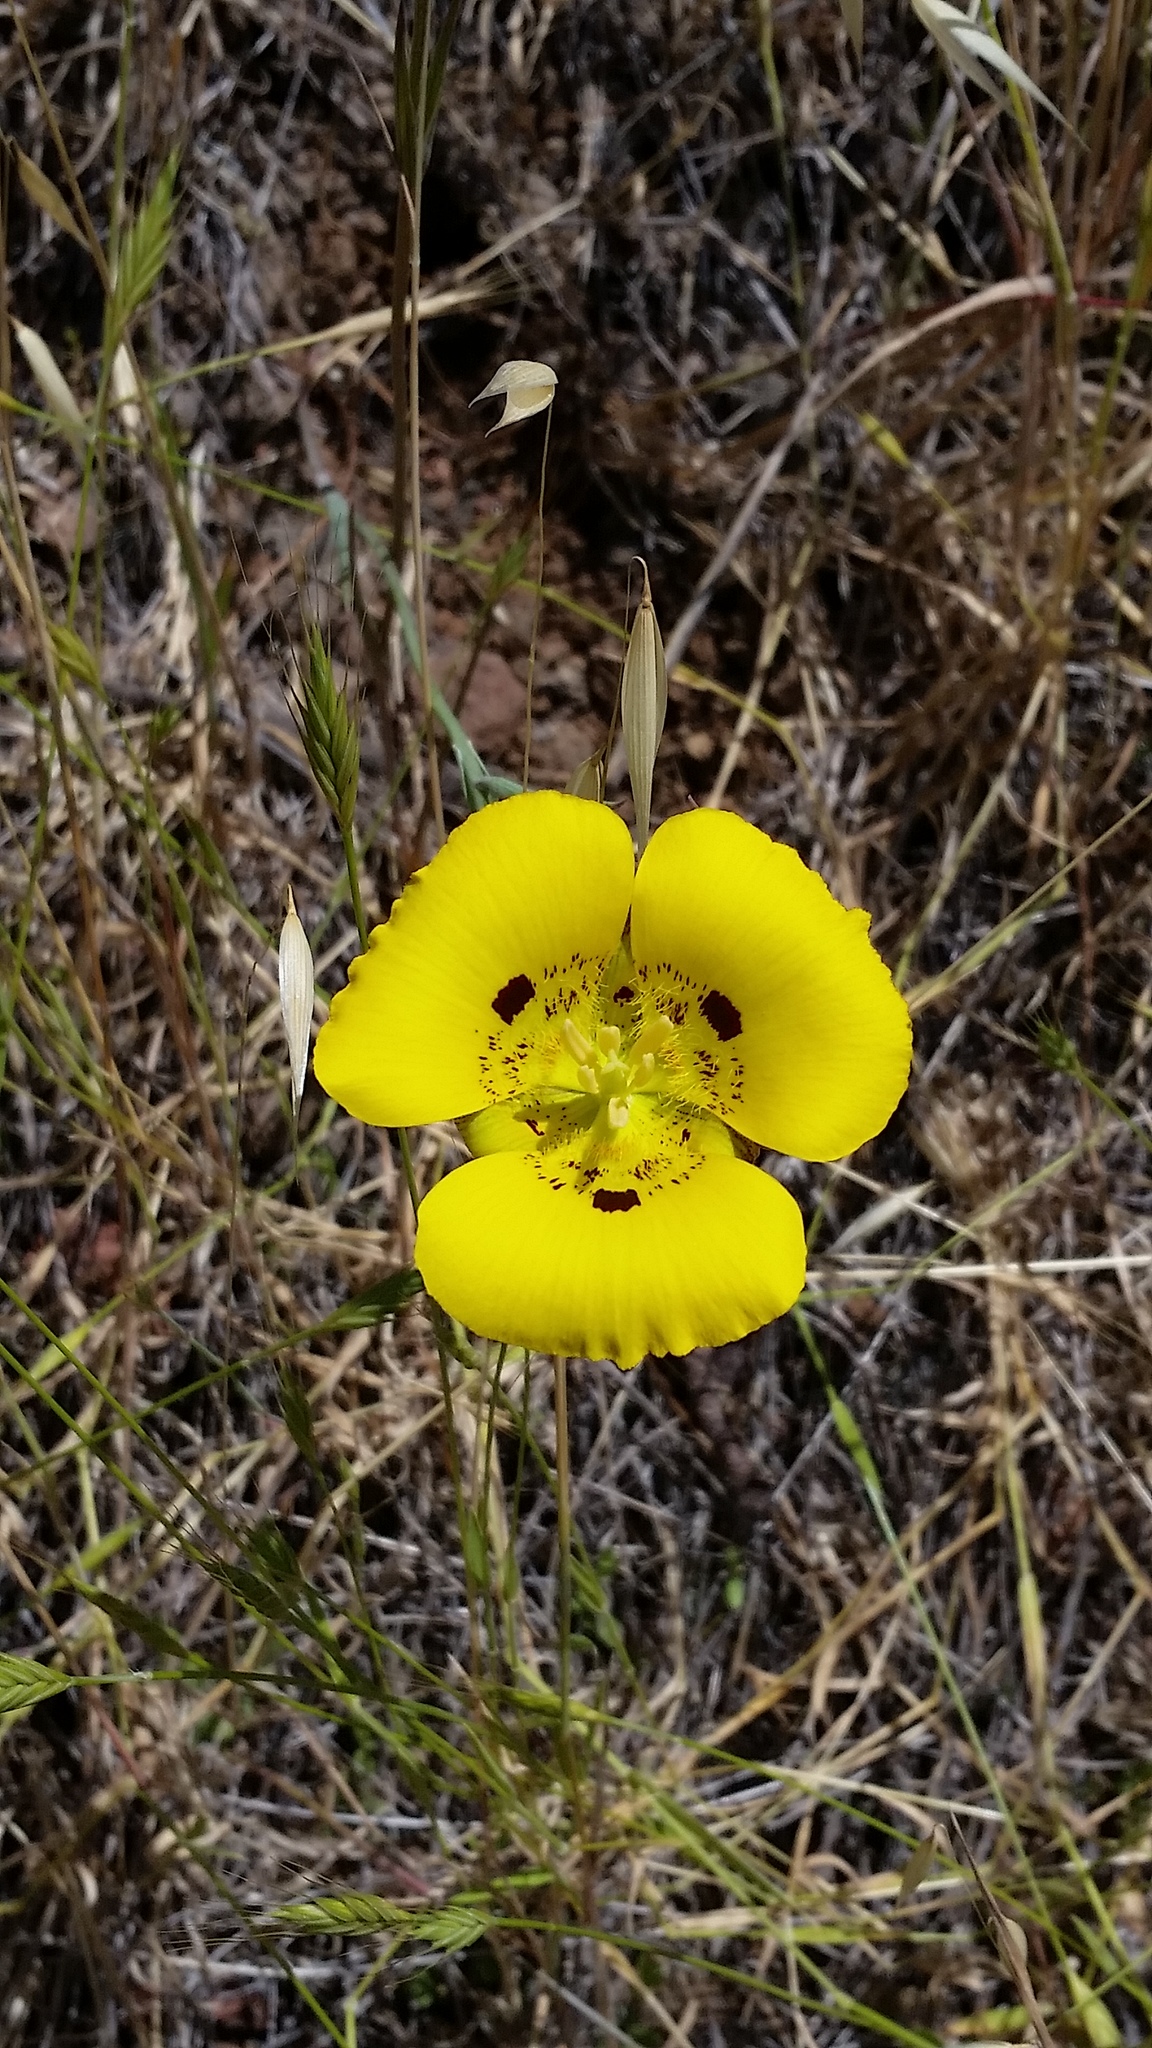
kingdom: Plantae
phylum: Tracheophyta
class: Liliopsida
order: Liliales
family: Liliaceae
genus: Calochortus
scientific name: Calochortus luteus
